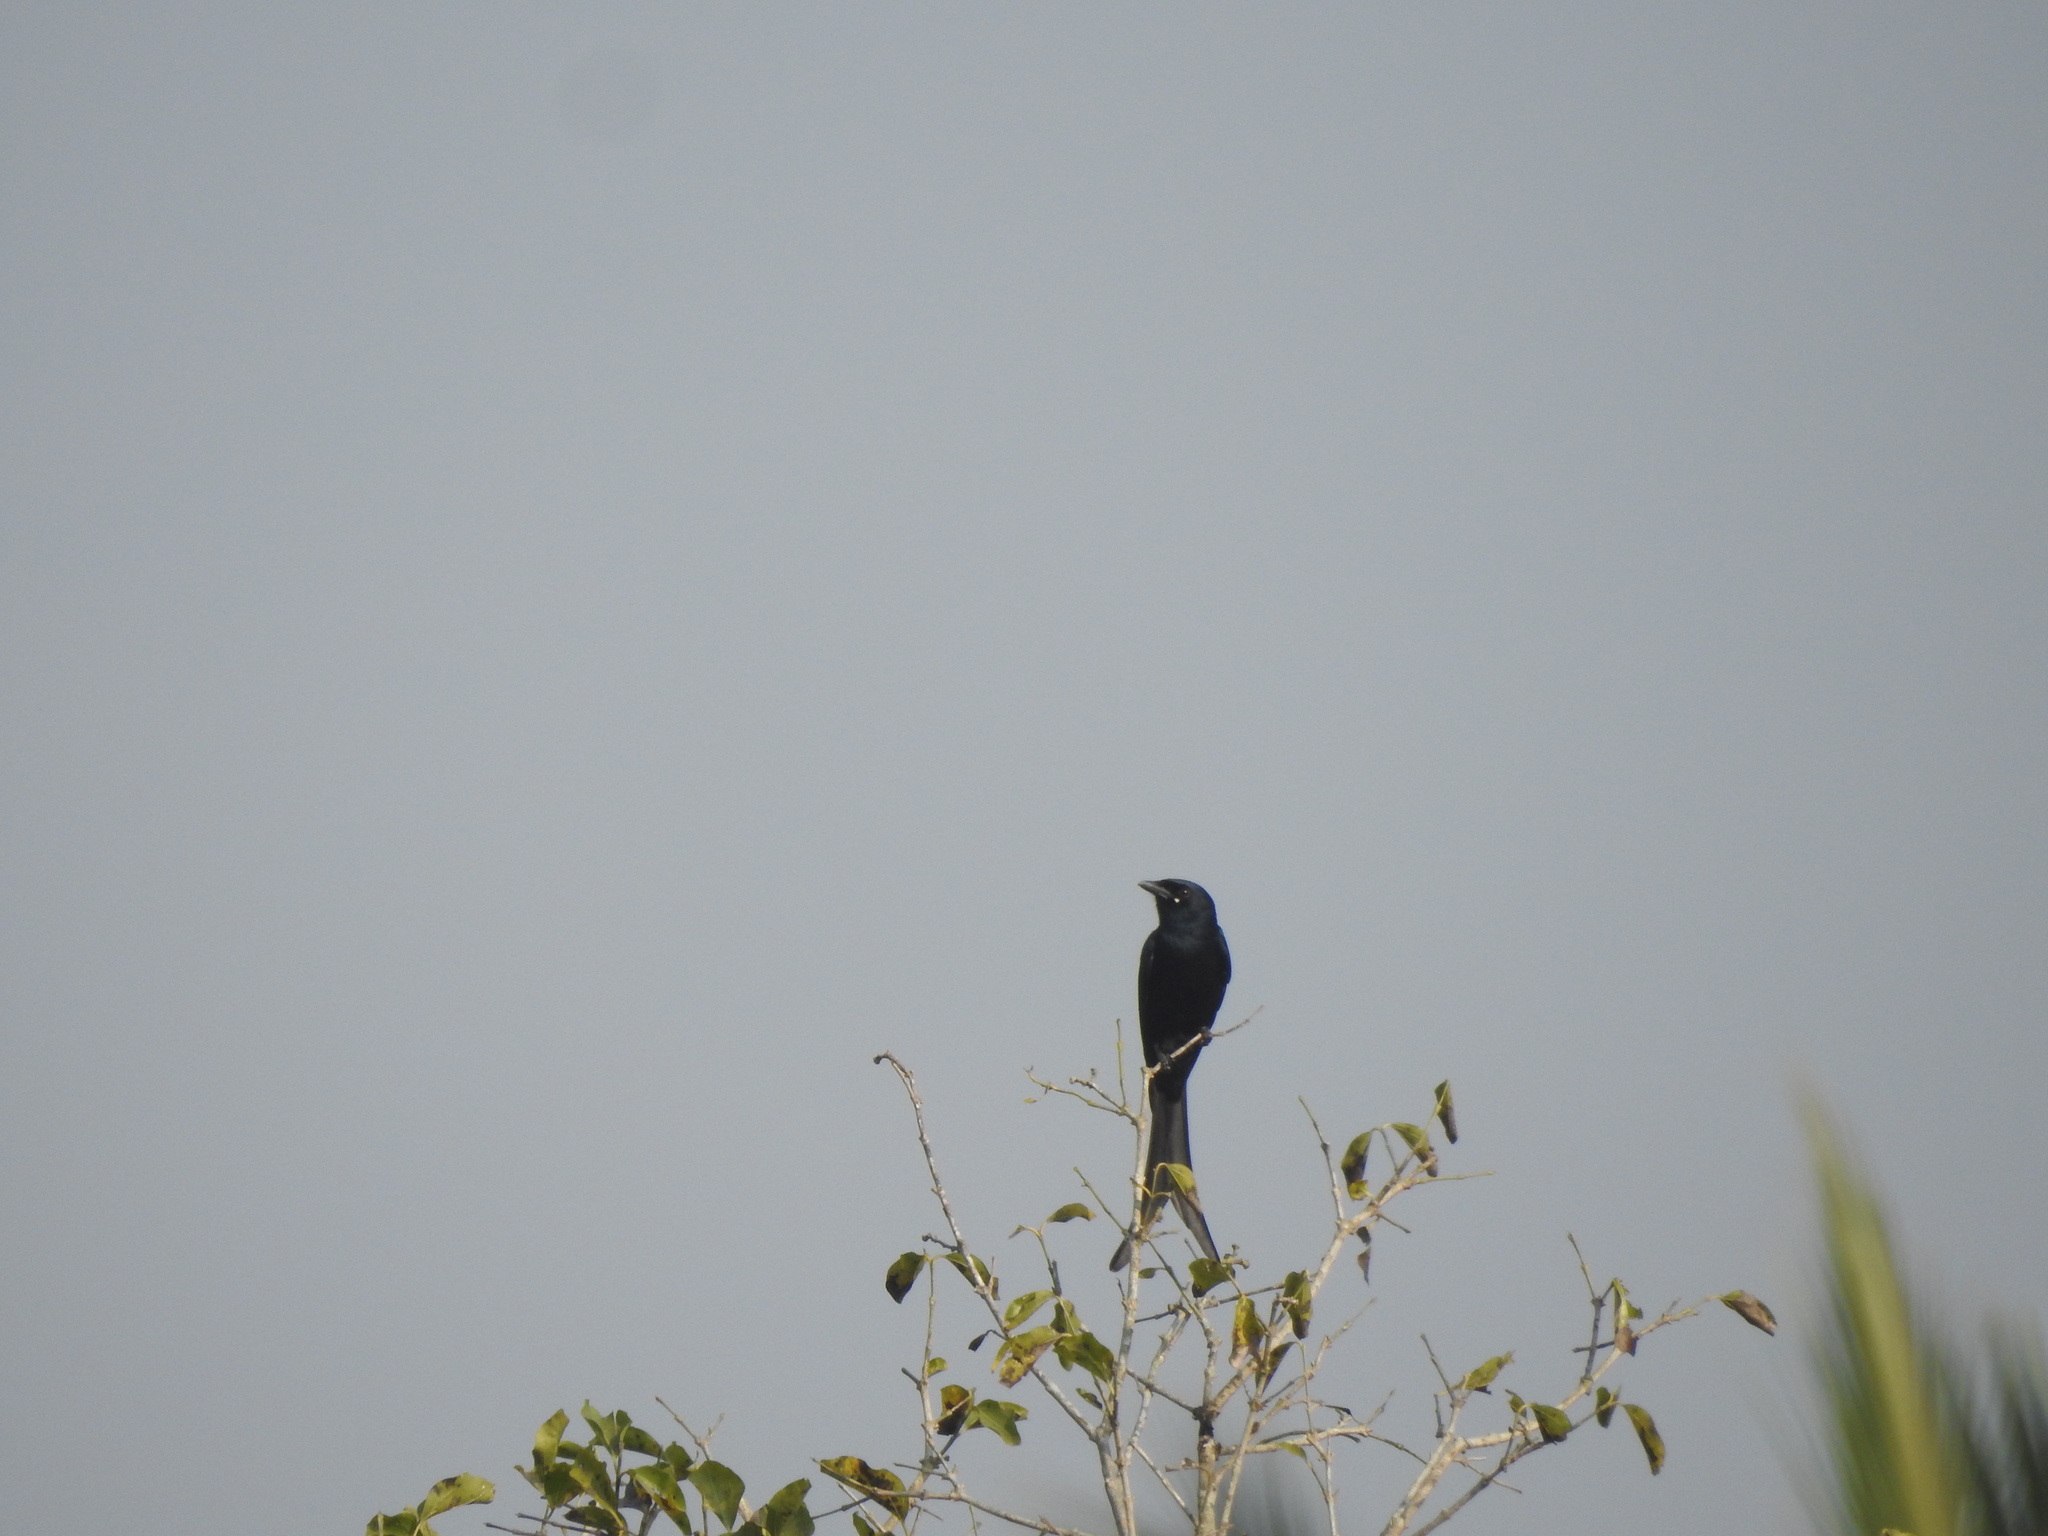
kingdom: Animalia
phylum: Chordata
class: Aves
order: Passeriformes
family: Dicruridae
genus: Dicrurus
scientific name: Dicrurus macrocercus
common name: Black drongo
